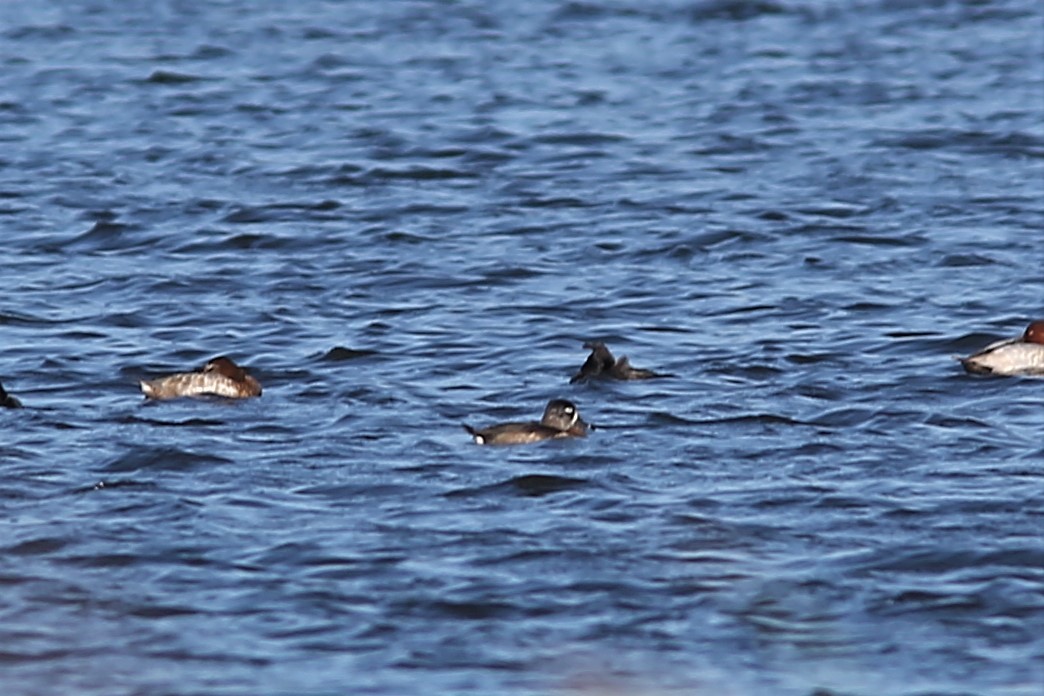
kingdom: Animalia
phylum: Chordata
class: Aves
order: Anseriformes
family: Anatidae
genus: Aythya
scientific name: Aythya collaris
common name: Ring-necked duck
